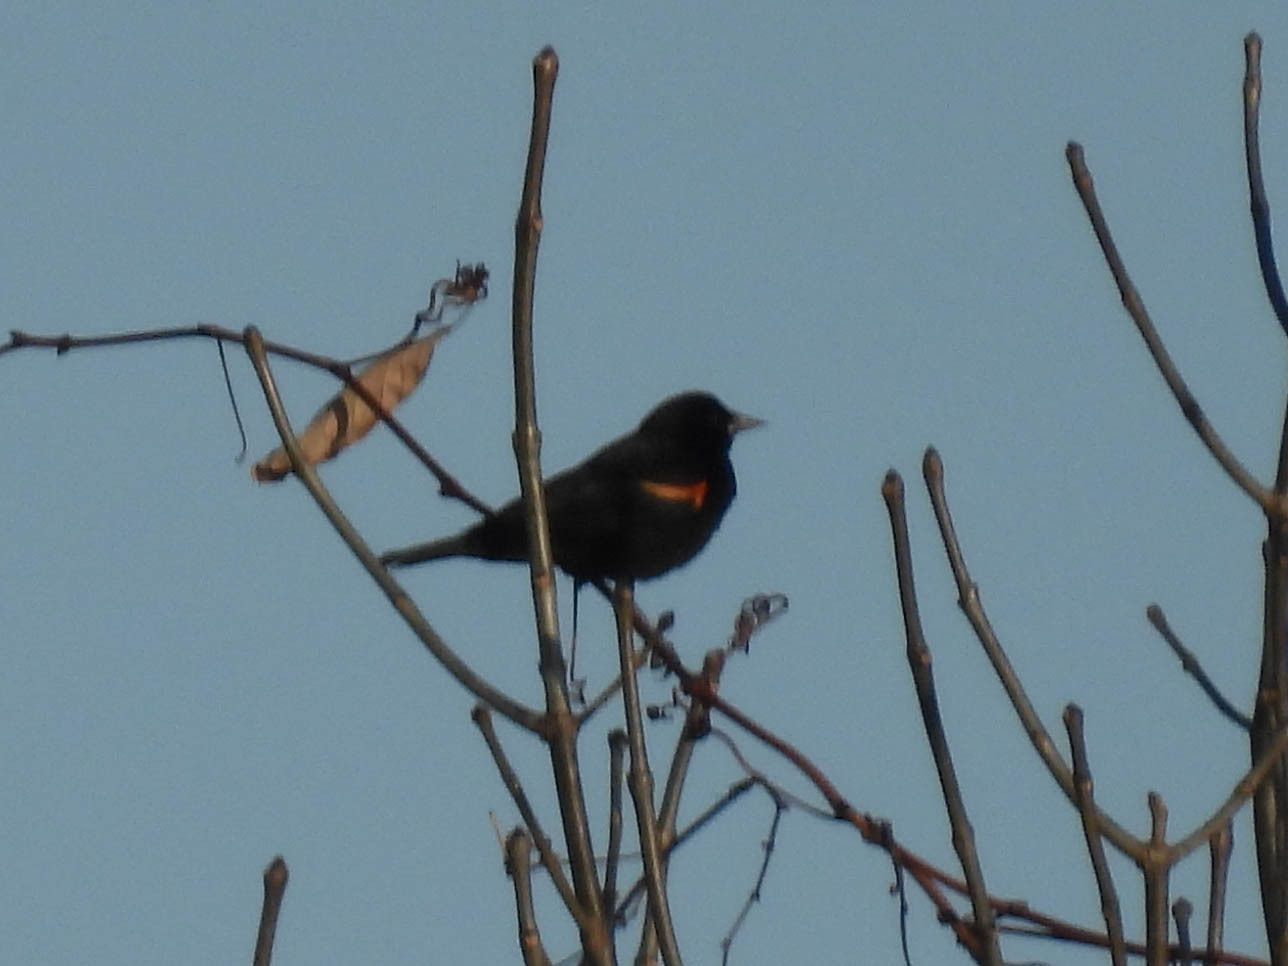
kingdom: Animalia
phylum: Chordata
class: Aves
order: Passeriformes
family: Icteridae
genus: Agelaius
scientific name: Agelaius phoeniceus
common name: Red-winged blackbird
